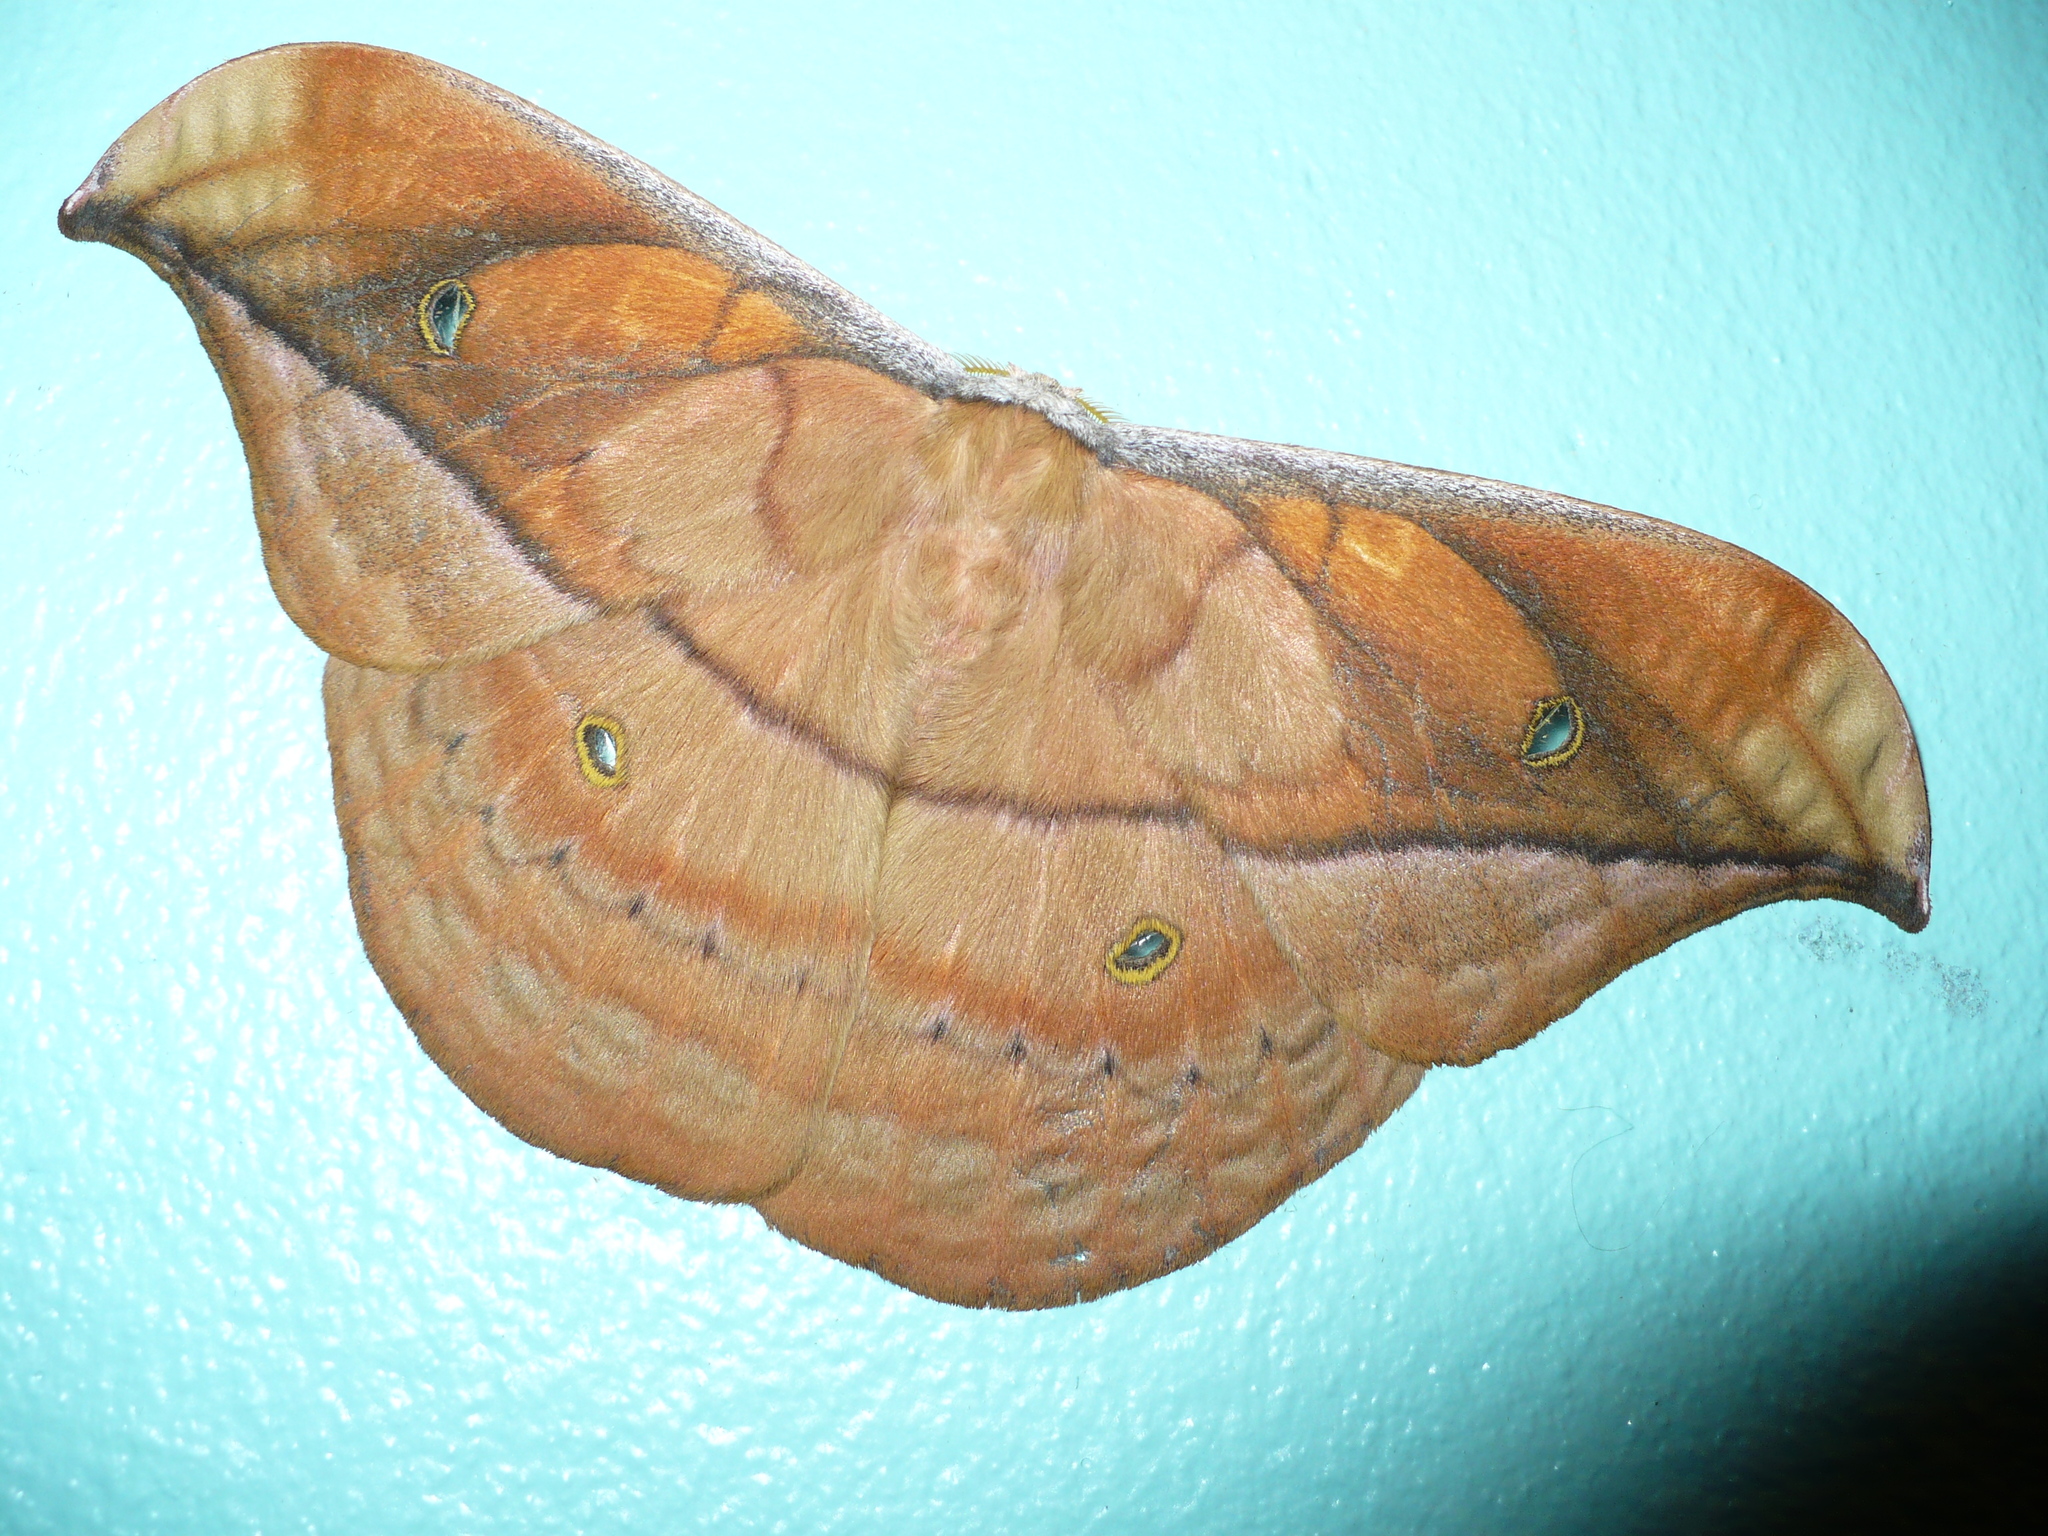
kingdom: Animalia
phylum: Arthropoda
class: Insecta
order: Lepidoptera
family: Saturniidae
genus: Copaxa
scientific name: Copaxa marona
